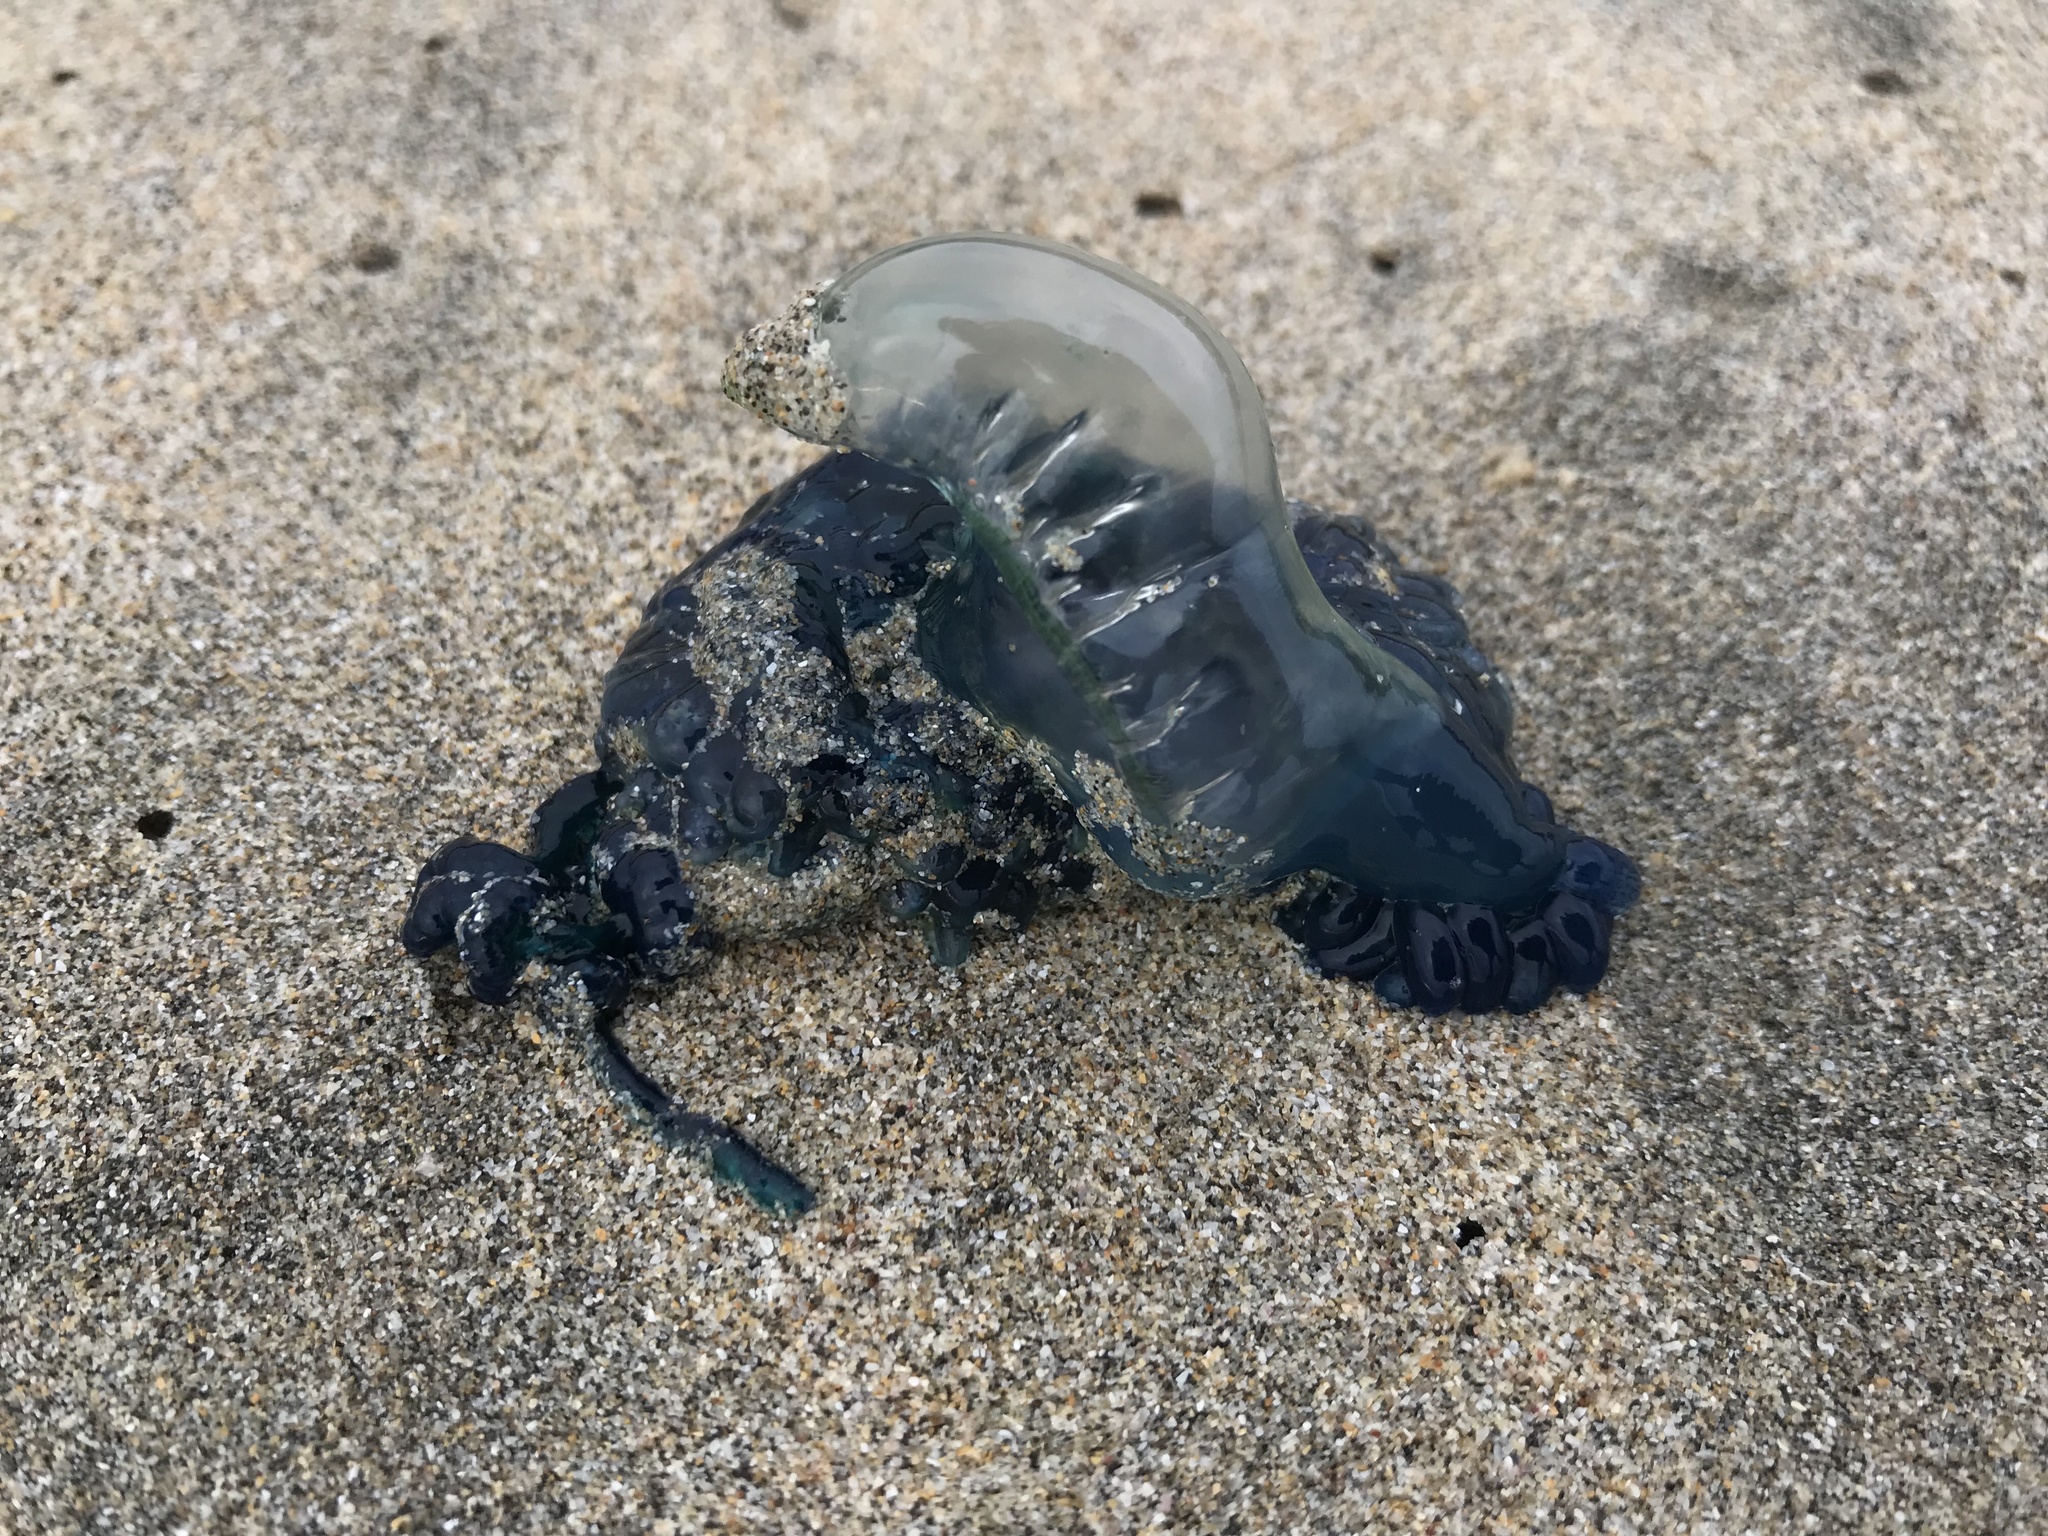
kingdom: Animalia
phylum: Cnidaria
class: Hydrozoa
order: Siphonophorae
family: Physaliidae
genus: Physalia
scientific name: Physalia physalis
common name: Portuguese man-of-war
